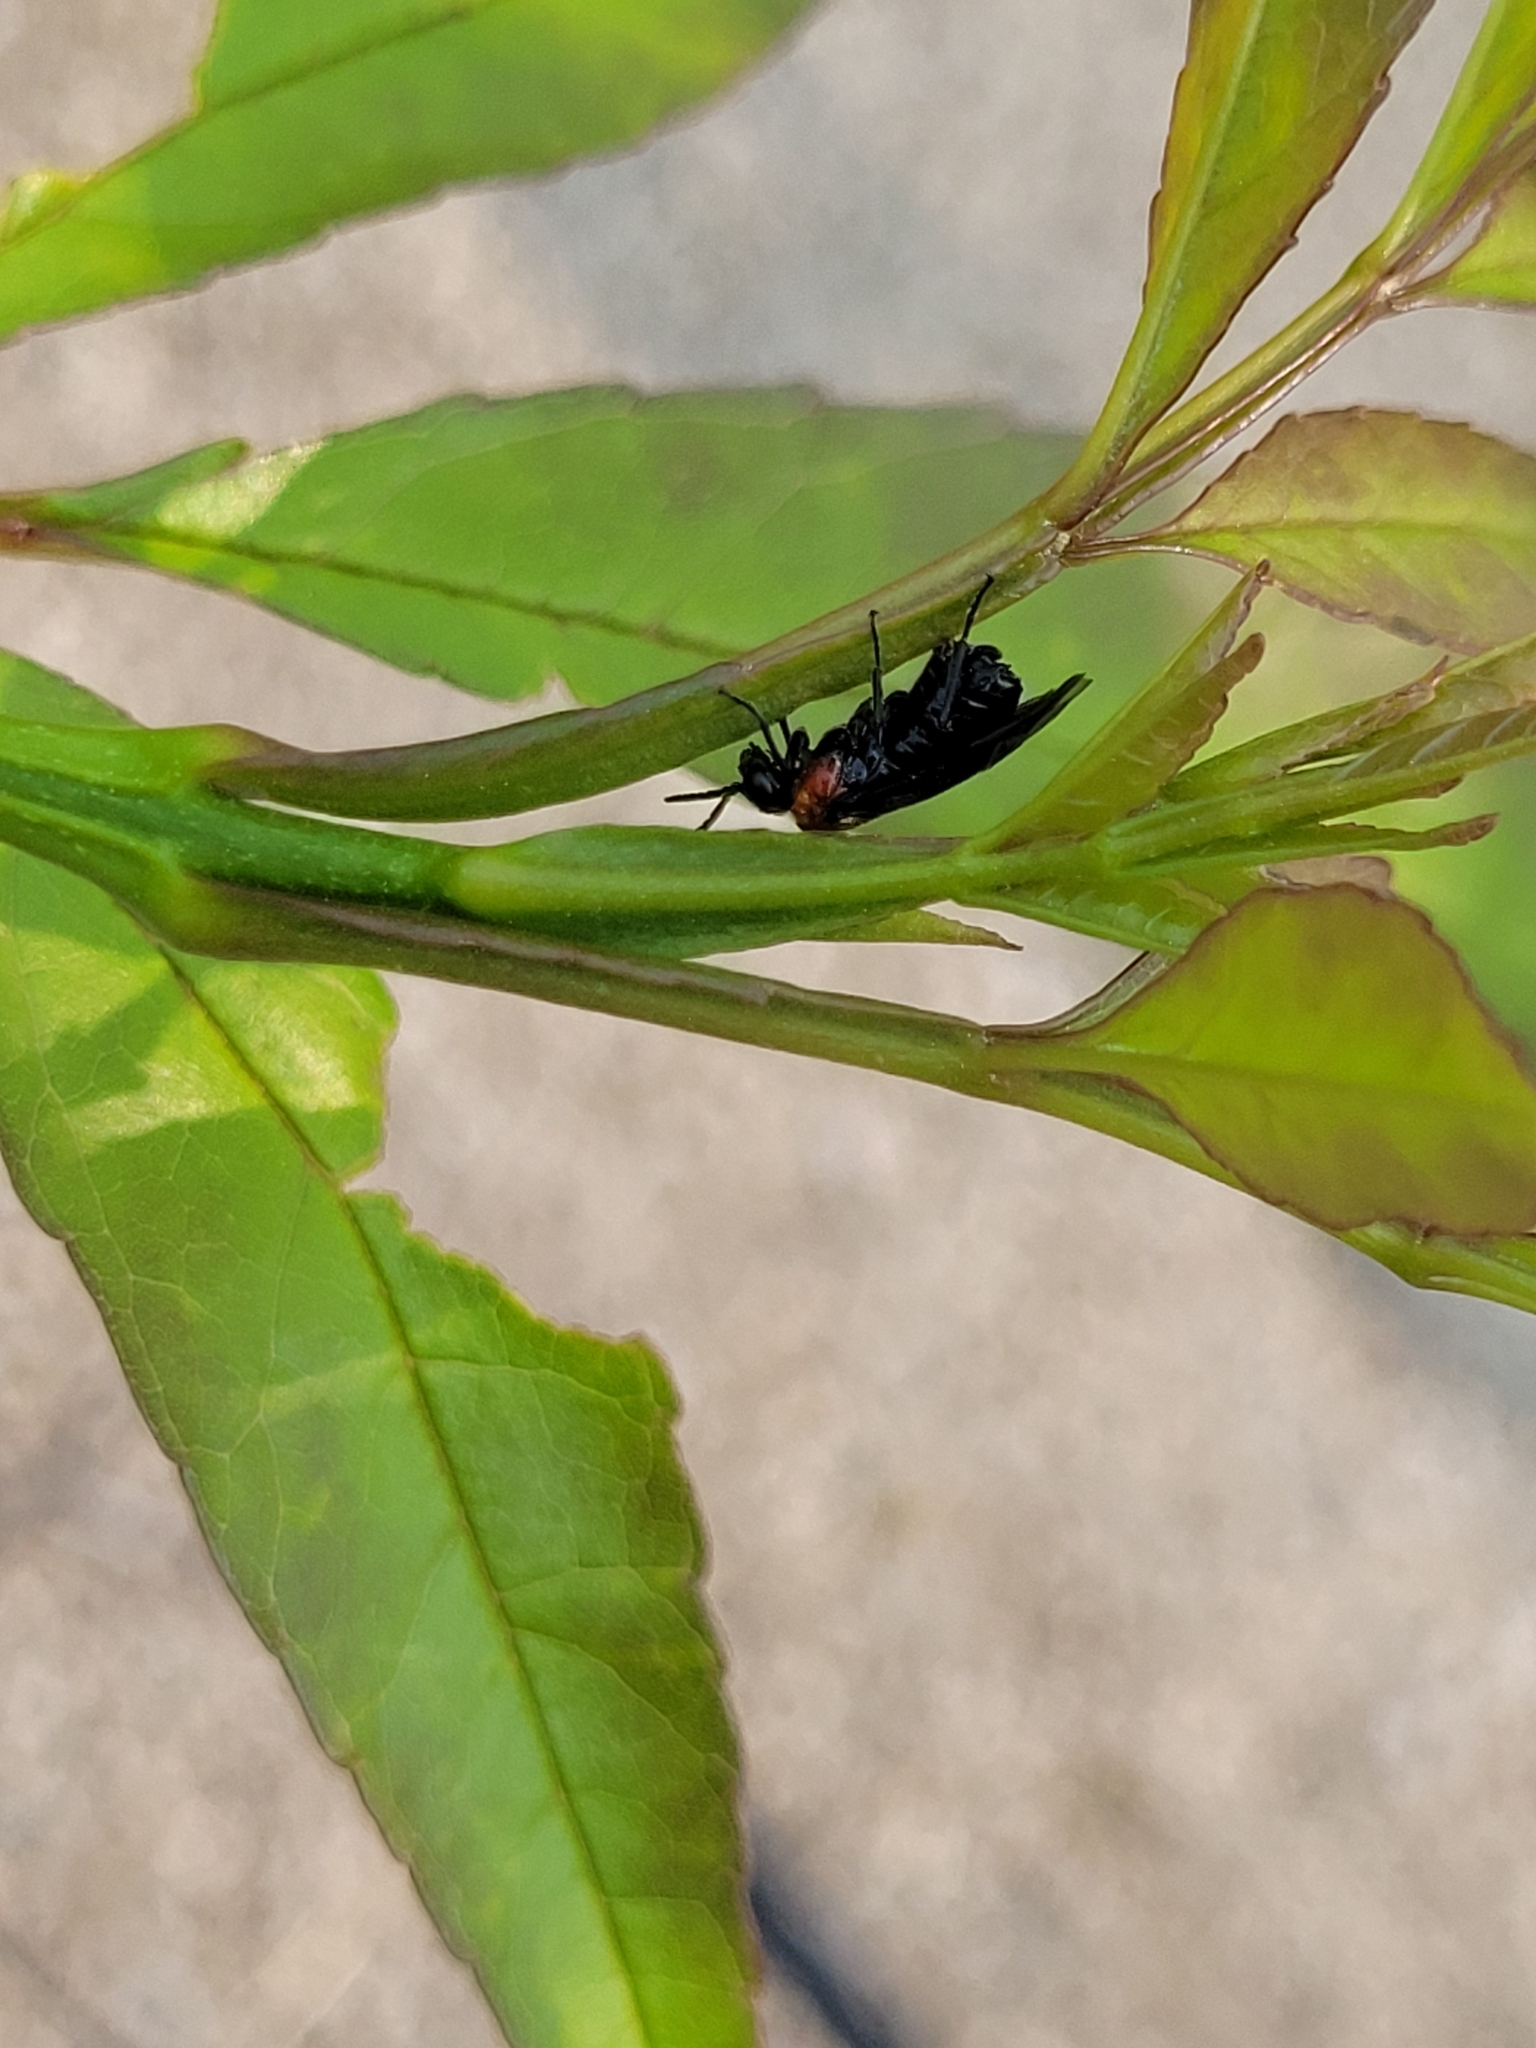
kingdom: Animalia
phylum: Arthropoda
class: Insecta
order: Hymenoptera
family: Tenthredinidae
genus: Tethida
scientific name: Tethida barda
